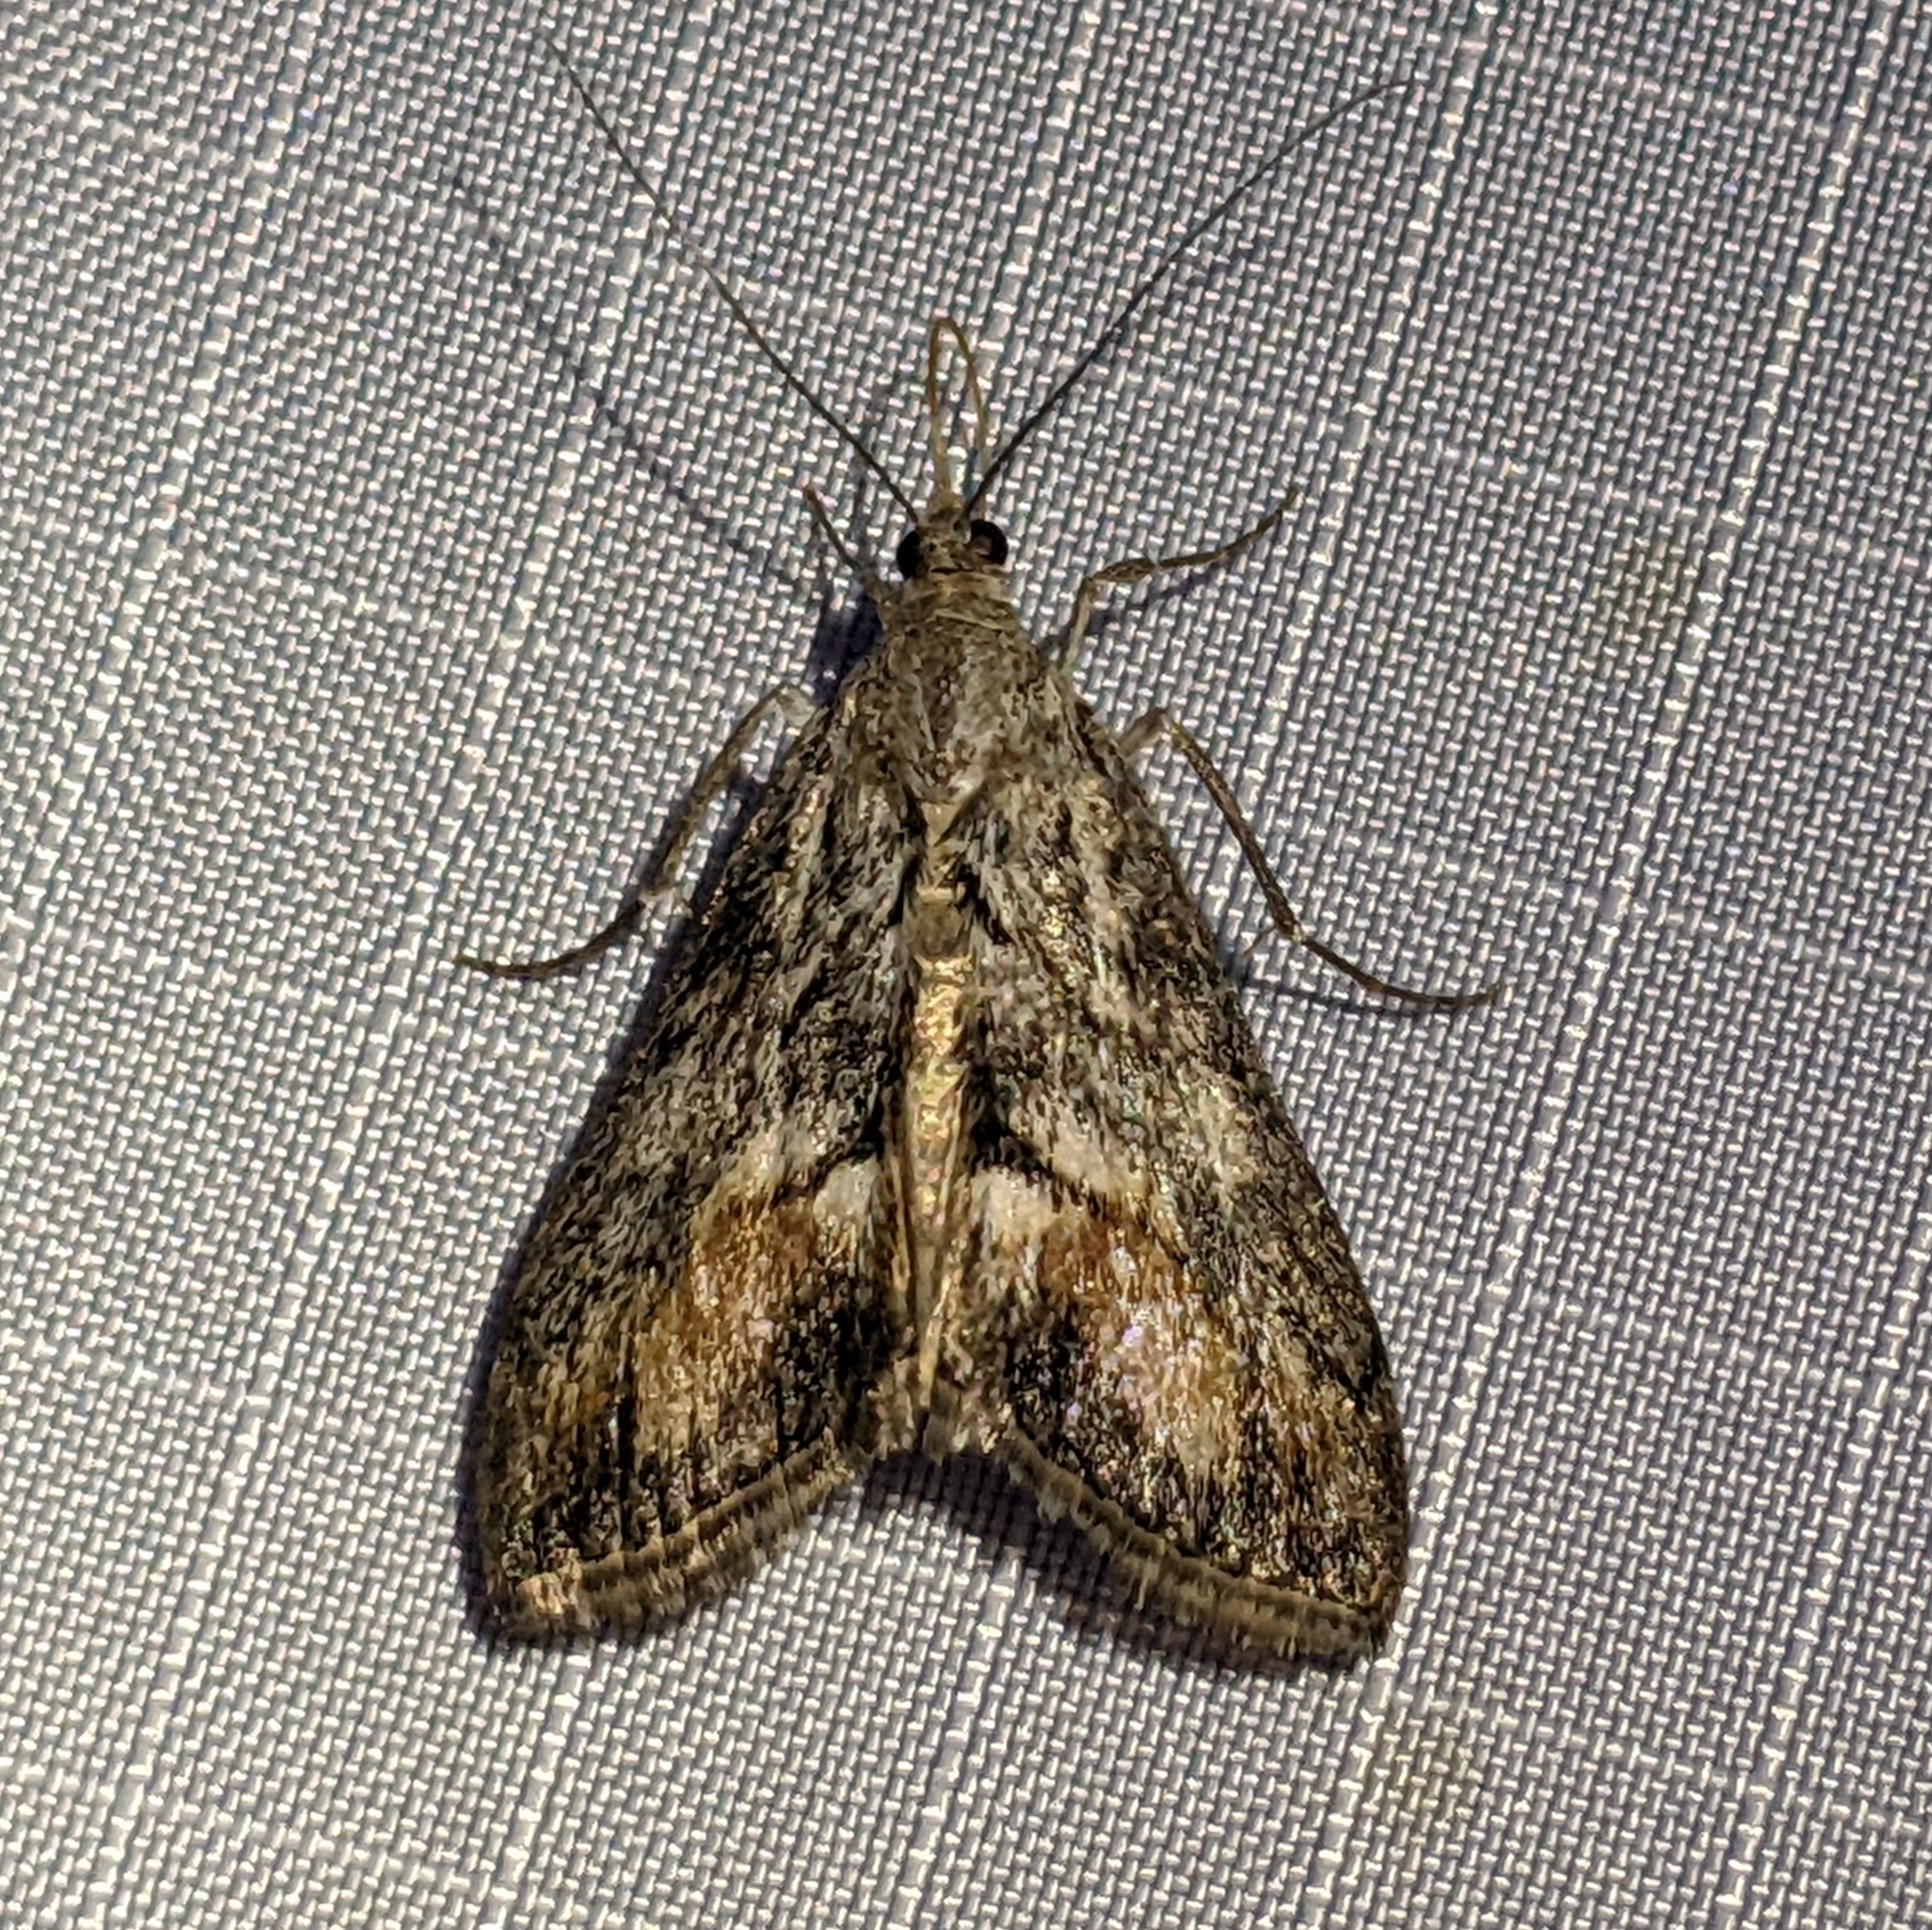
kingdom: Animalia
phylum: Arthropoda
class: Insecta
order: Lepidoptera
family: Crambidae
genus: Evergestis
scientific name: Evergestis subterminalis
